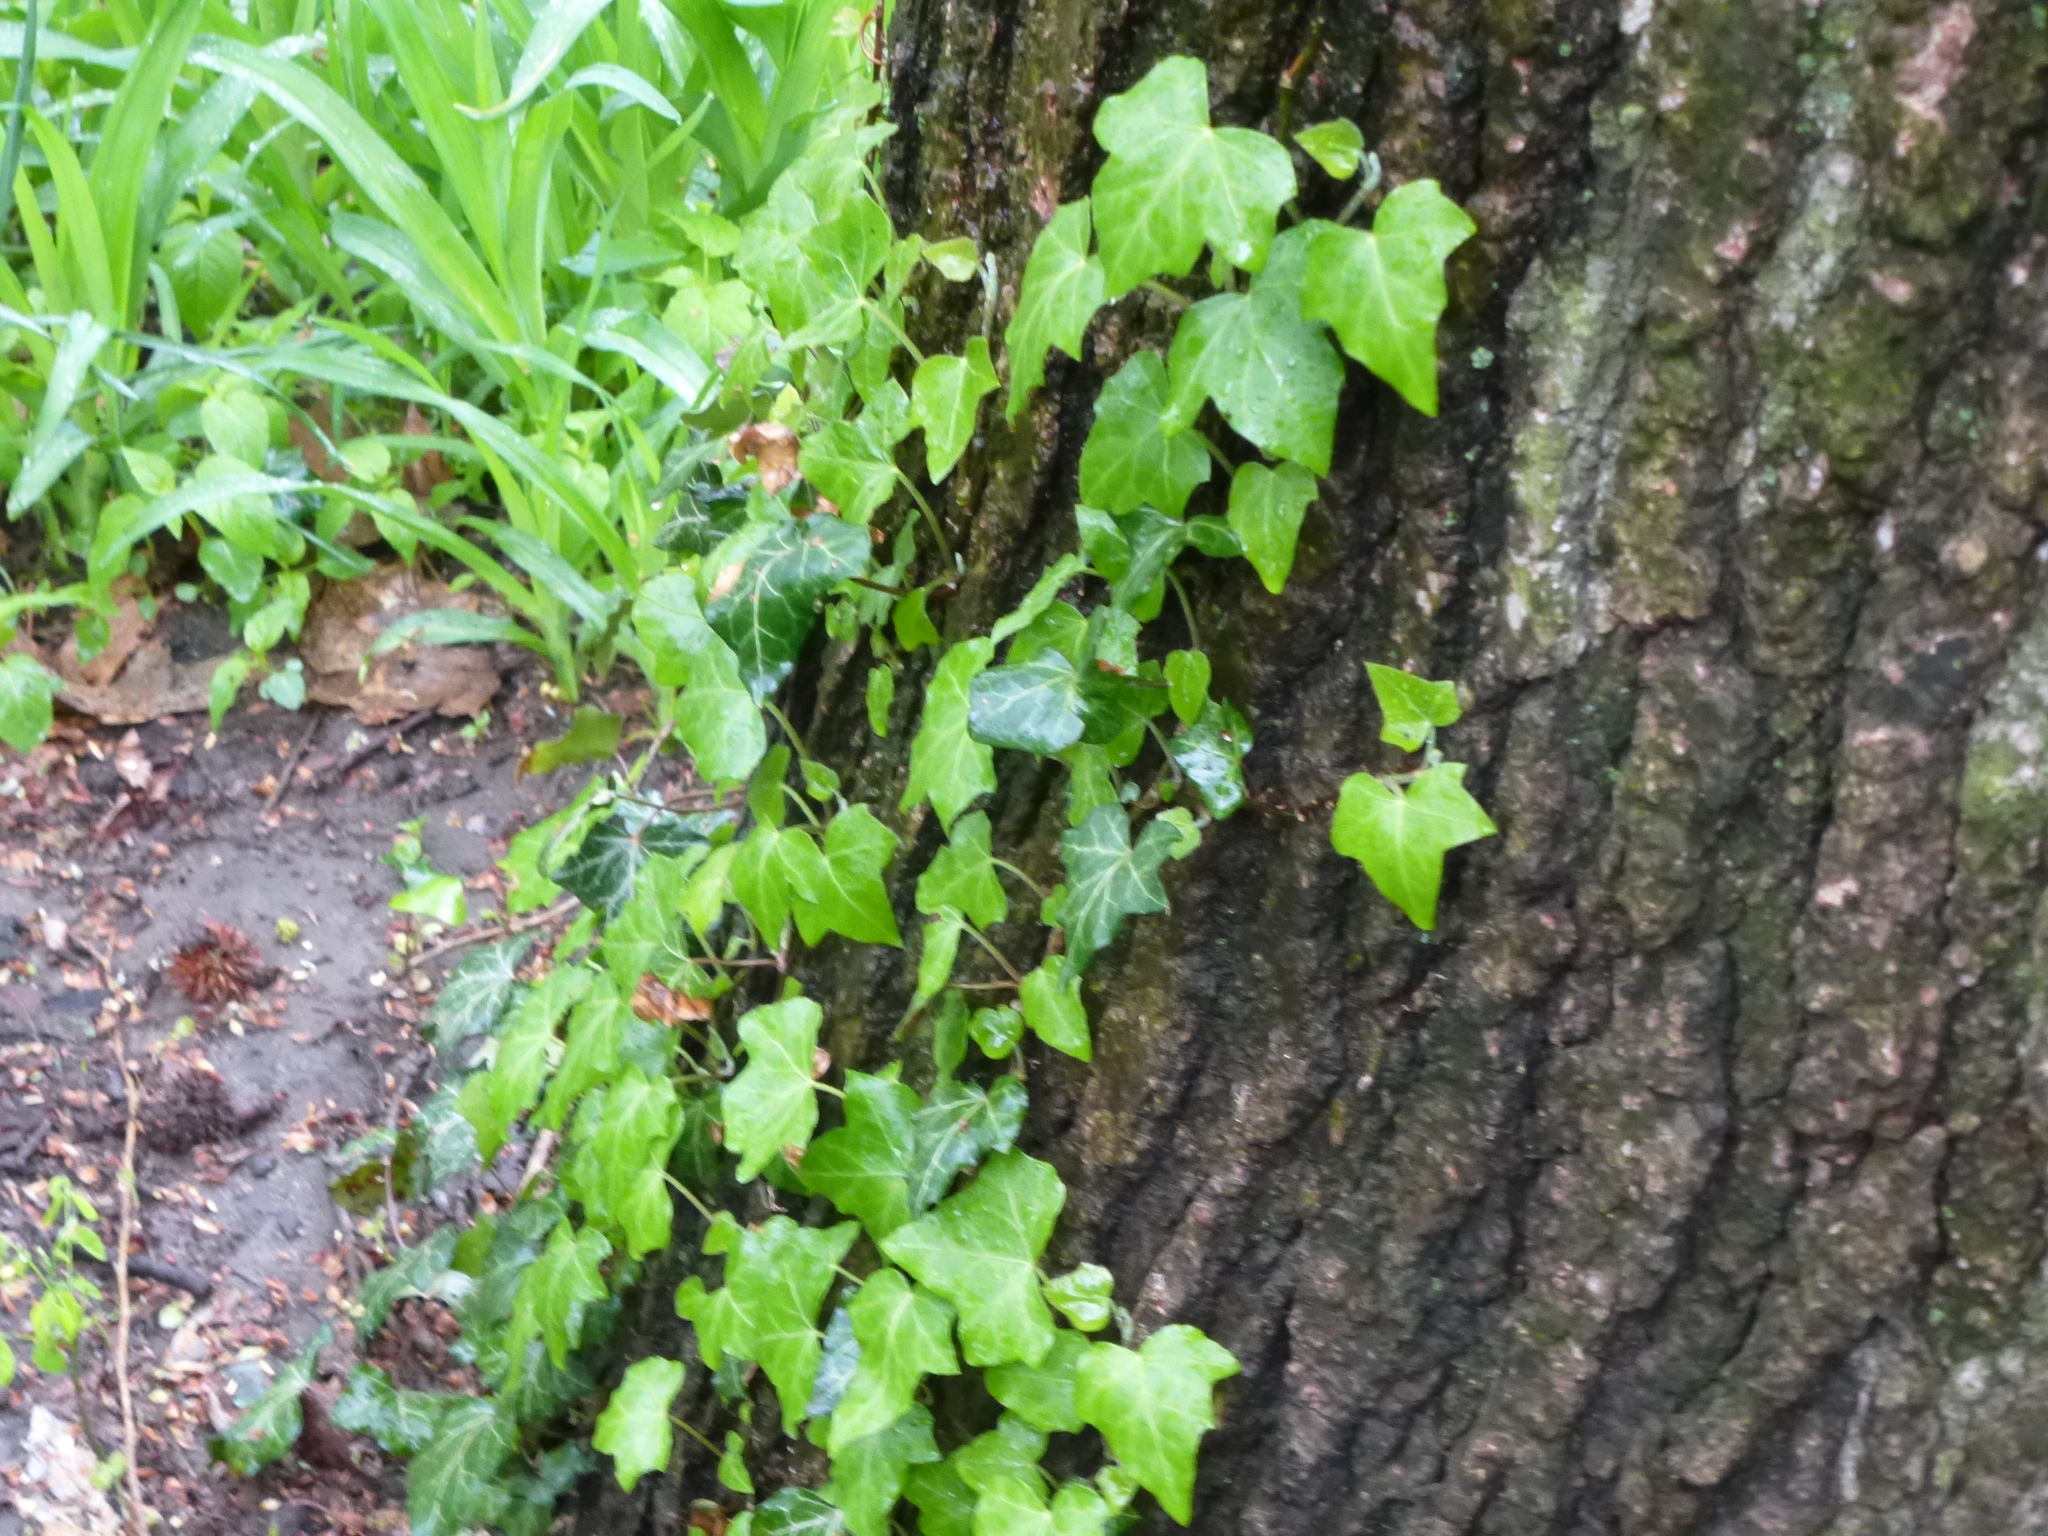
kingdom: Plantae
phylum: Tracheophyta
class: Magnoliopsida
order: Apiales
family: Araliaceae
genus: Hedera
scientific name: Hedera
